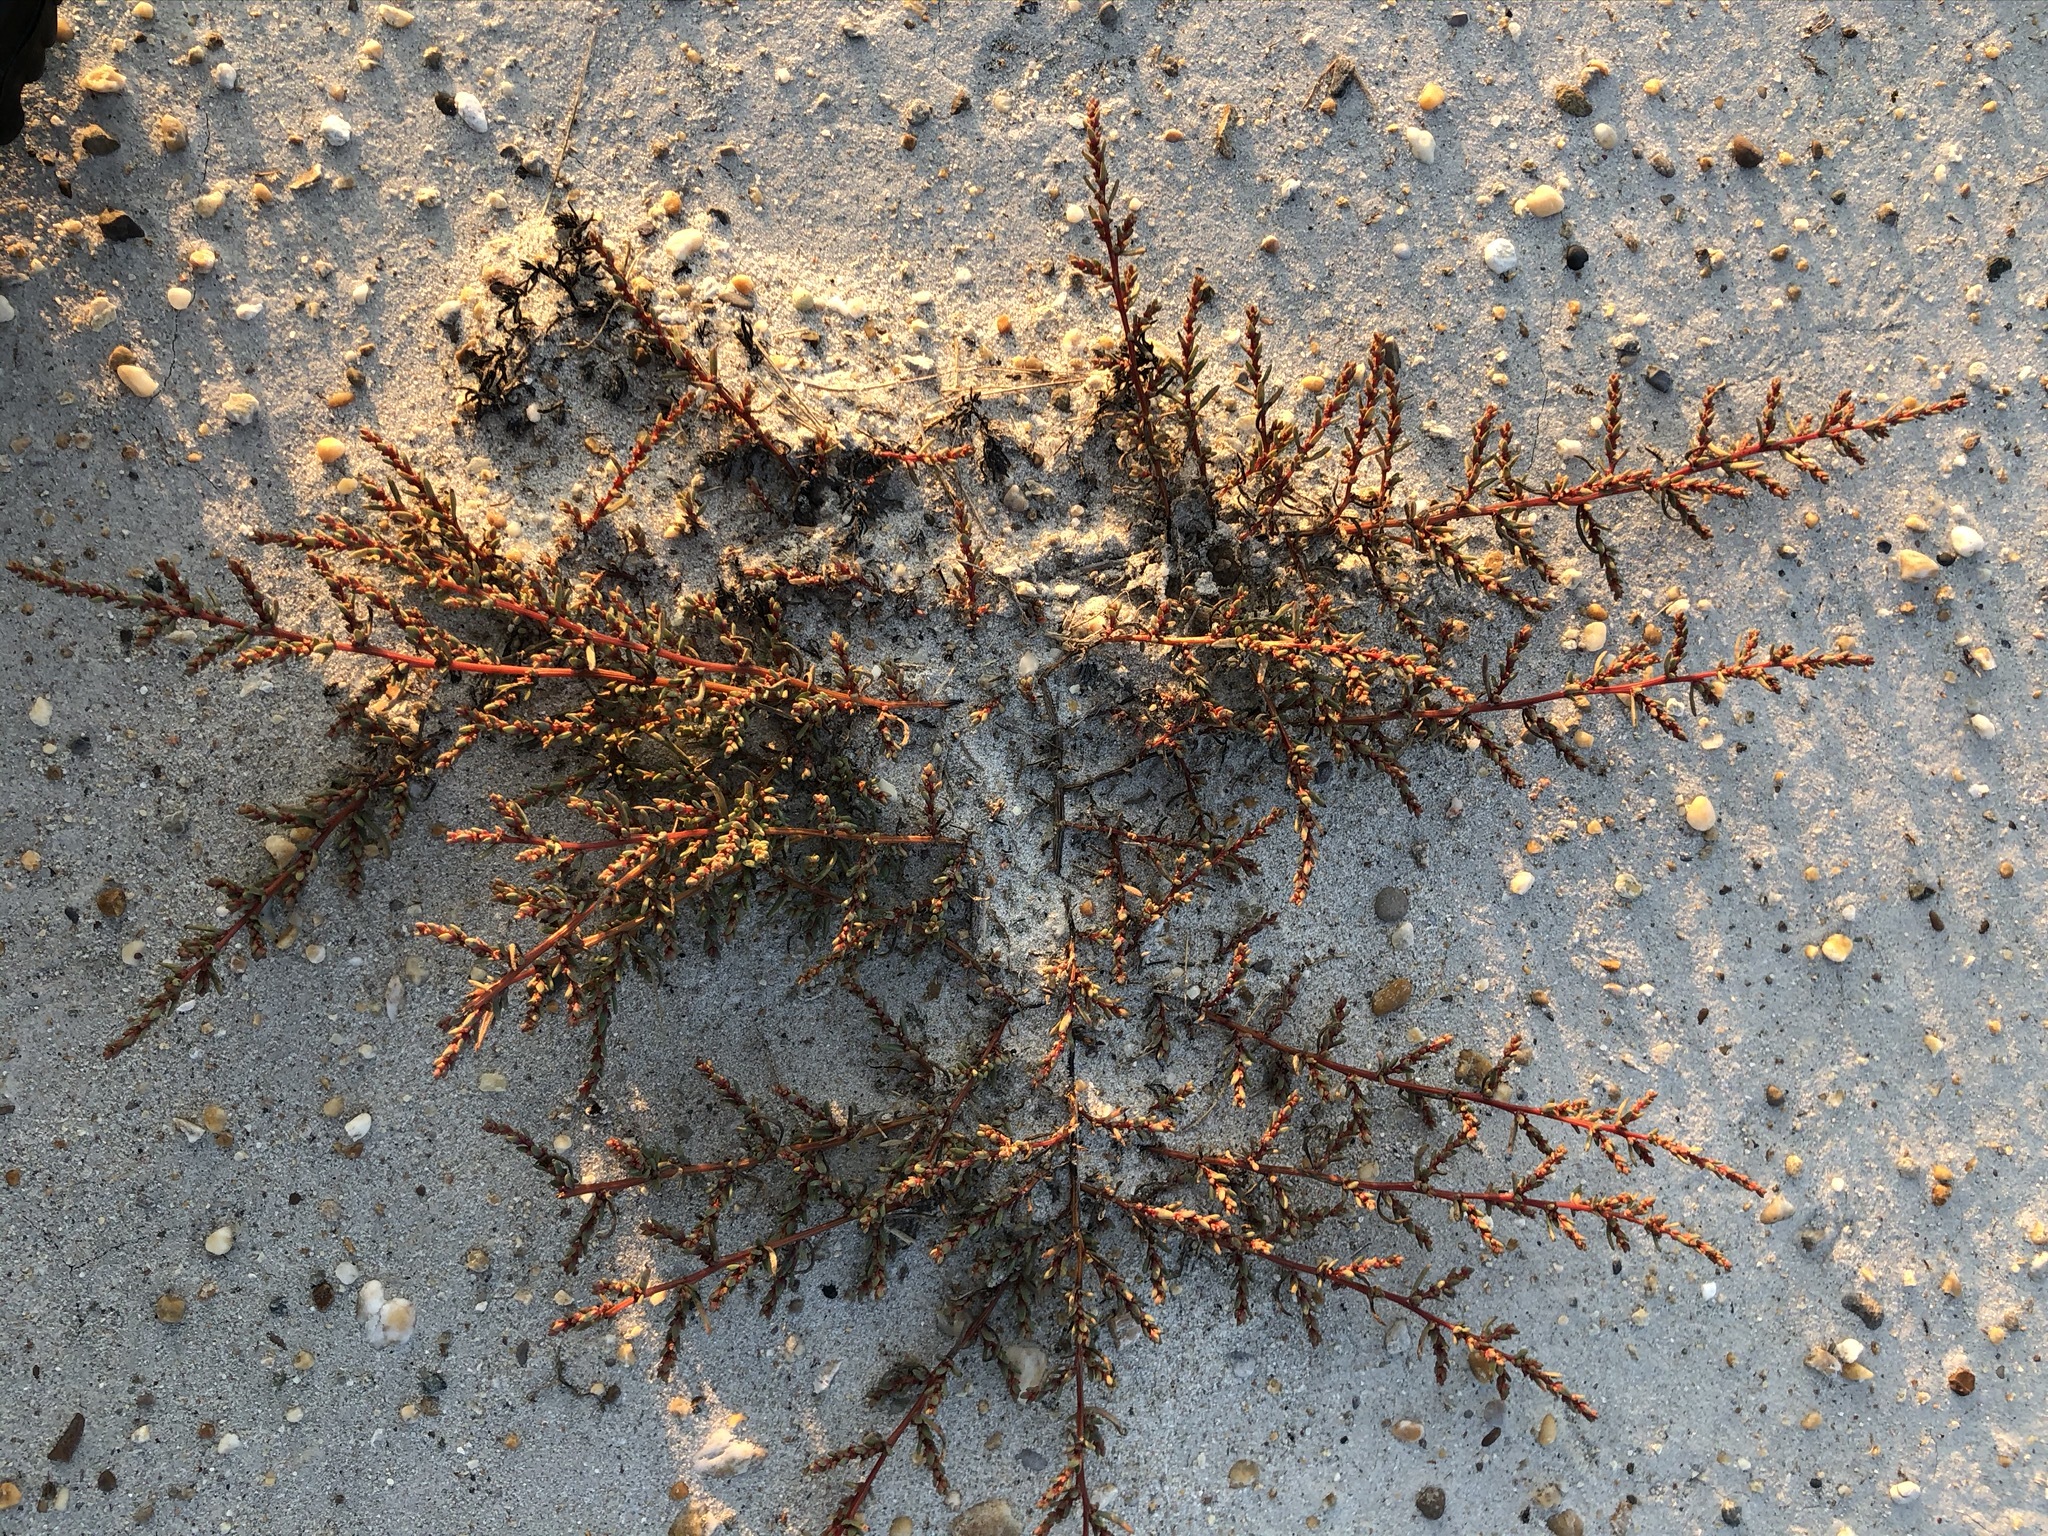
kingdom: Plantae
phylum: Tracheophyta
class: Magnoliopsida
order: Caryophyllales
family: Amaranthaceae
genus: Suaeda
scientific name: Suaeda pannonica
